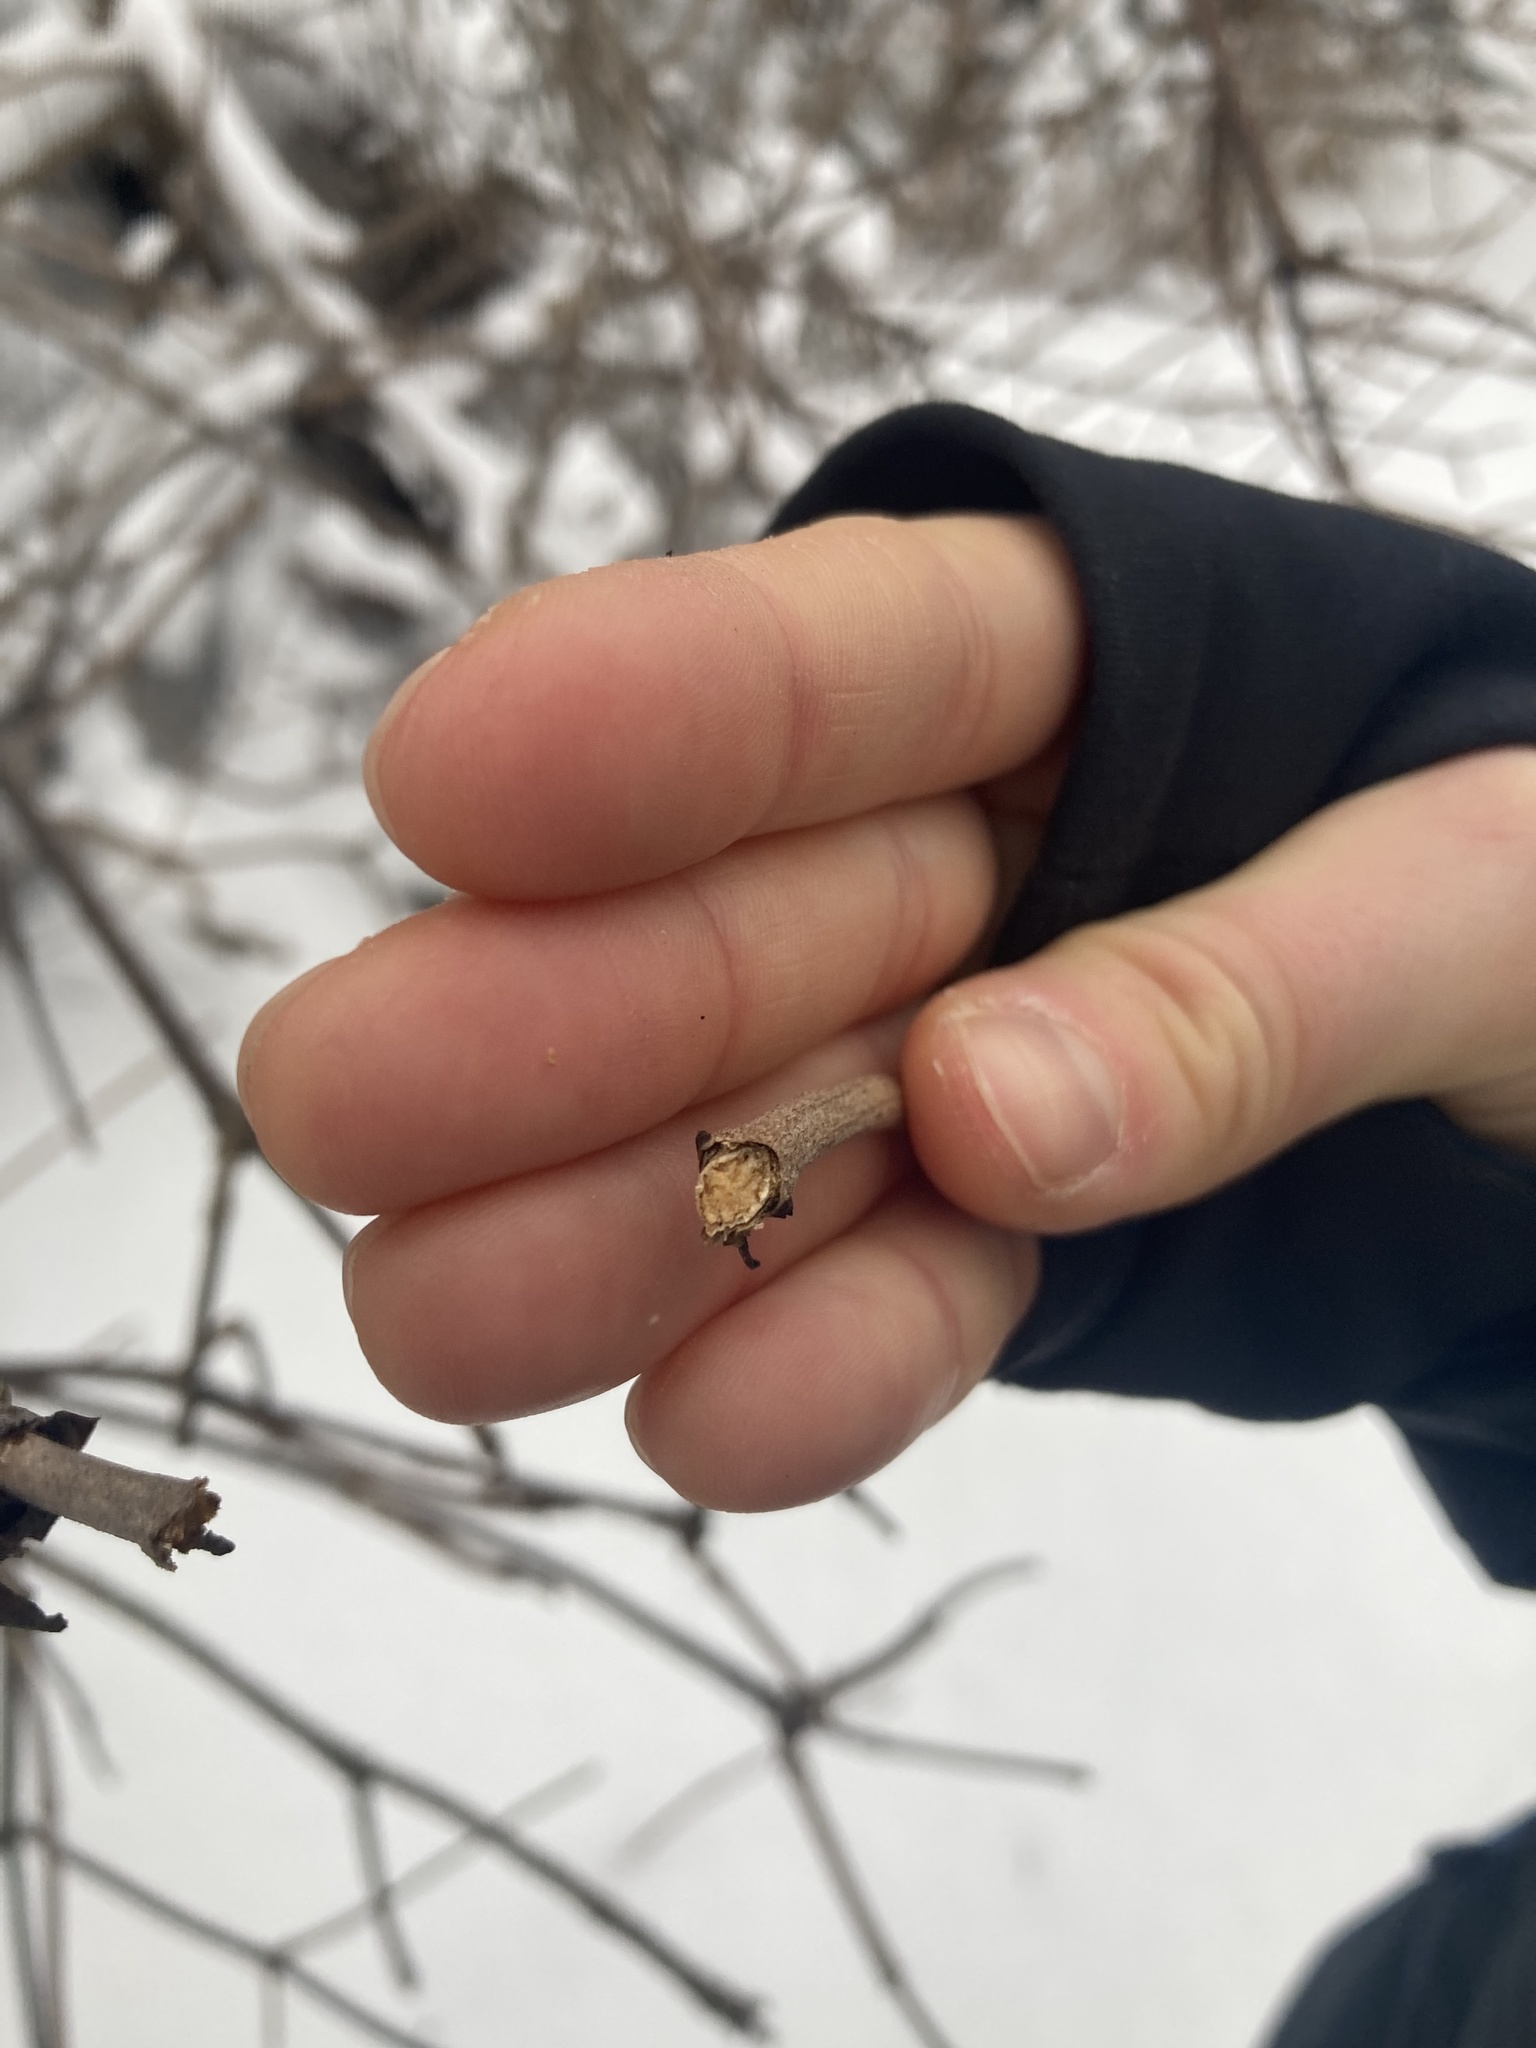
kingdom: Plantae
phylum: Tracheophyta
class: Magnoliopsida
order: Dipsacales
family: Viburnaceae
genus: Sambucus
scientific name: Sambucus racemosa
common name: Red-berried elder
